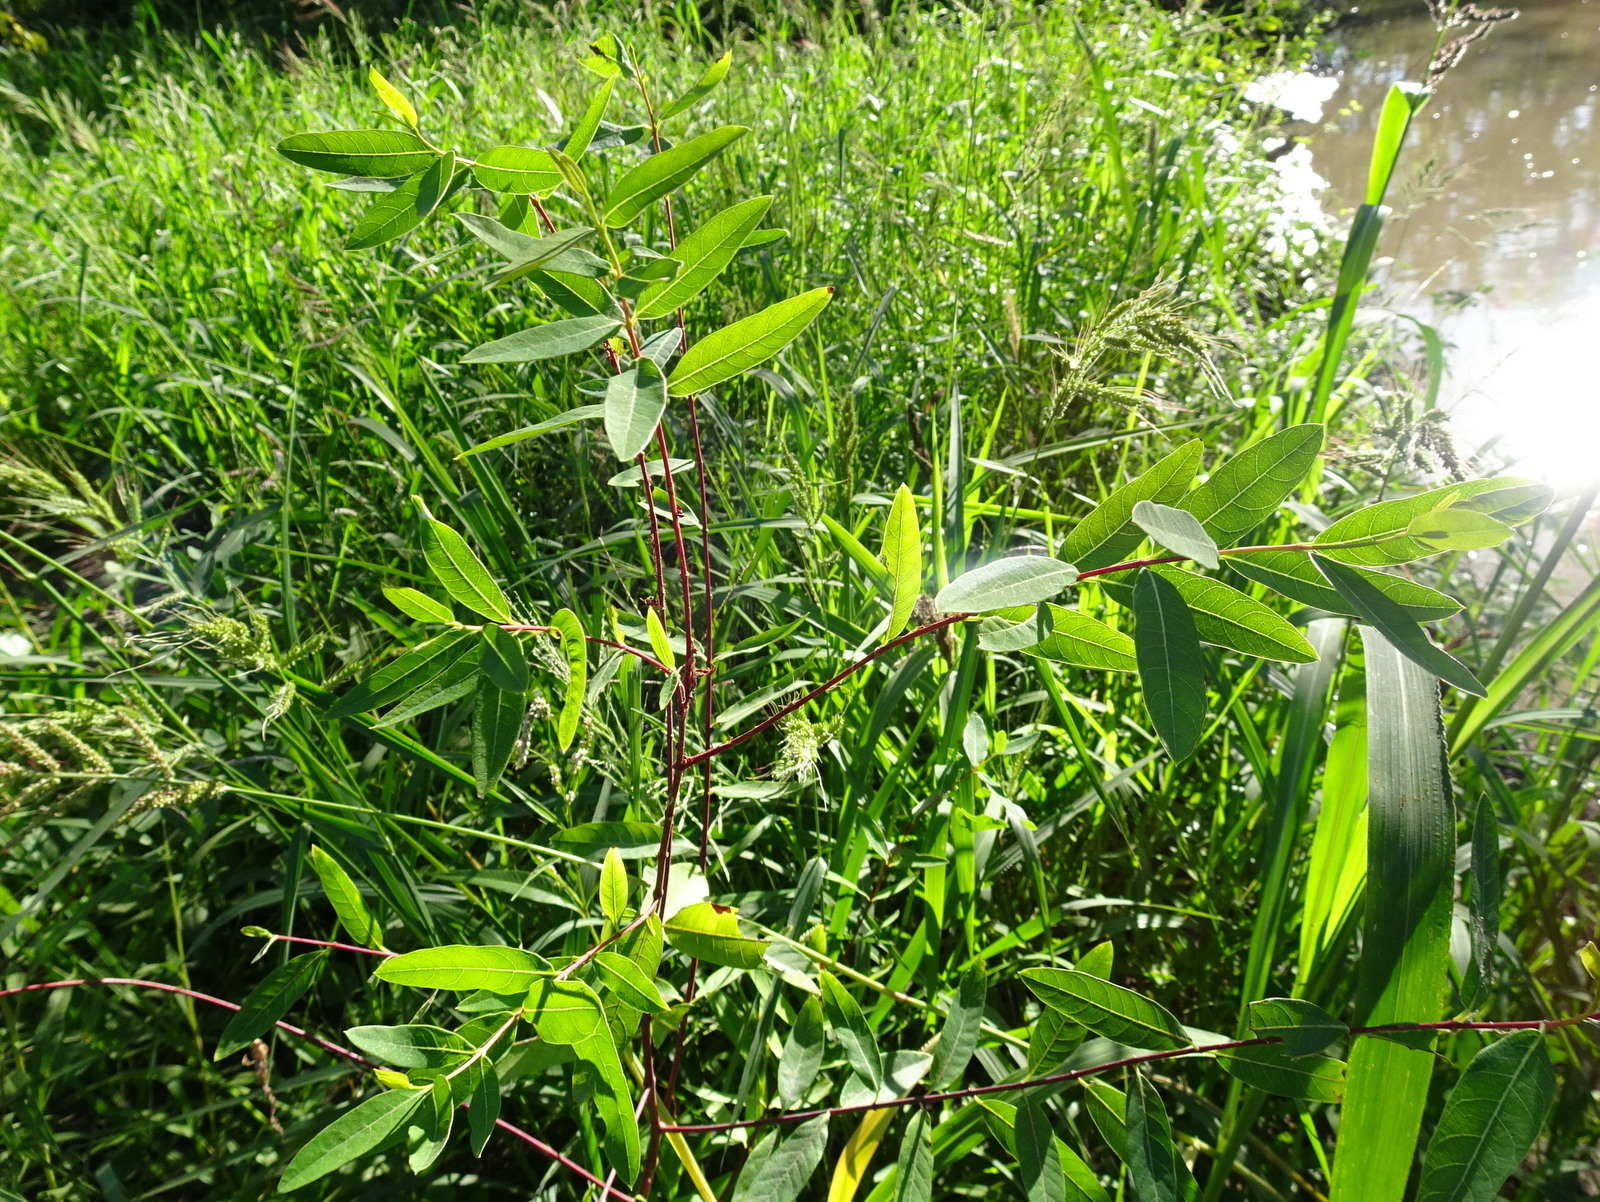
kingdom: Plantae
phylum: Tracheophyta
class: Magnoliopsida
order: Gentianales
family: Apocynaceae
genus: Apocynum
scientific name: Apocynum cannabinum
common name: Hemp dogbane
